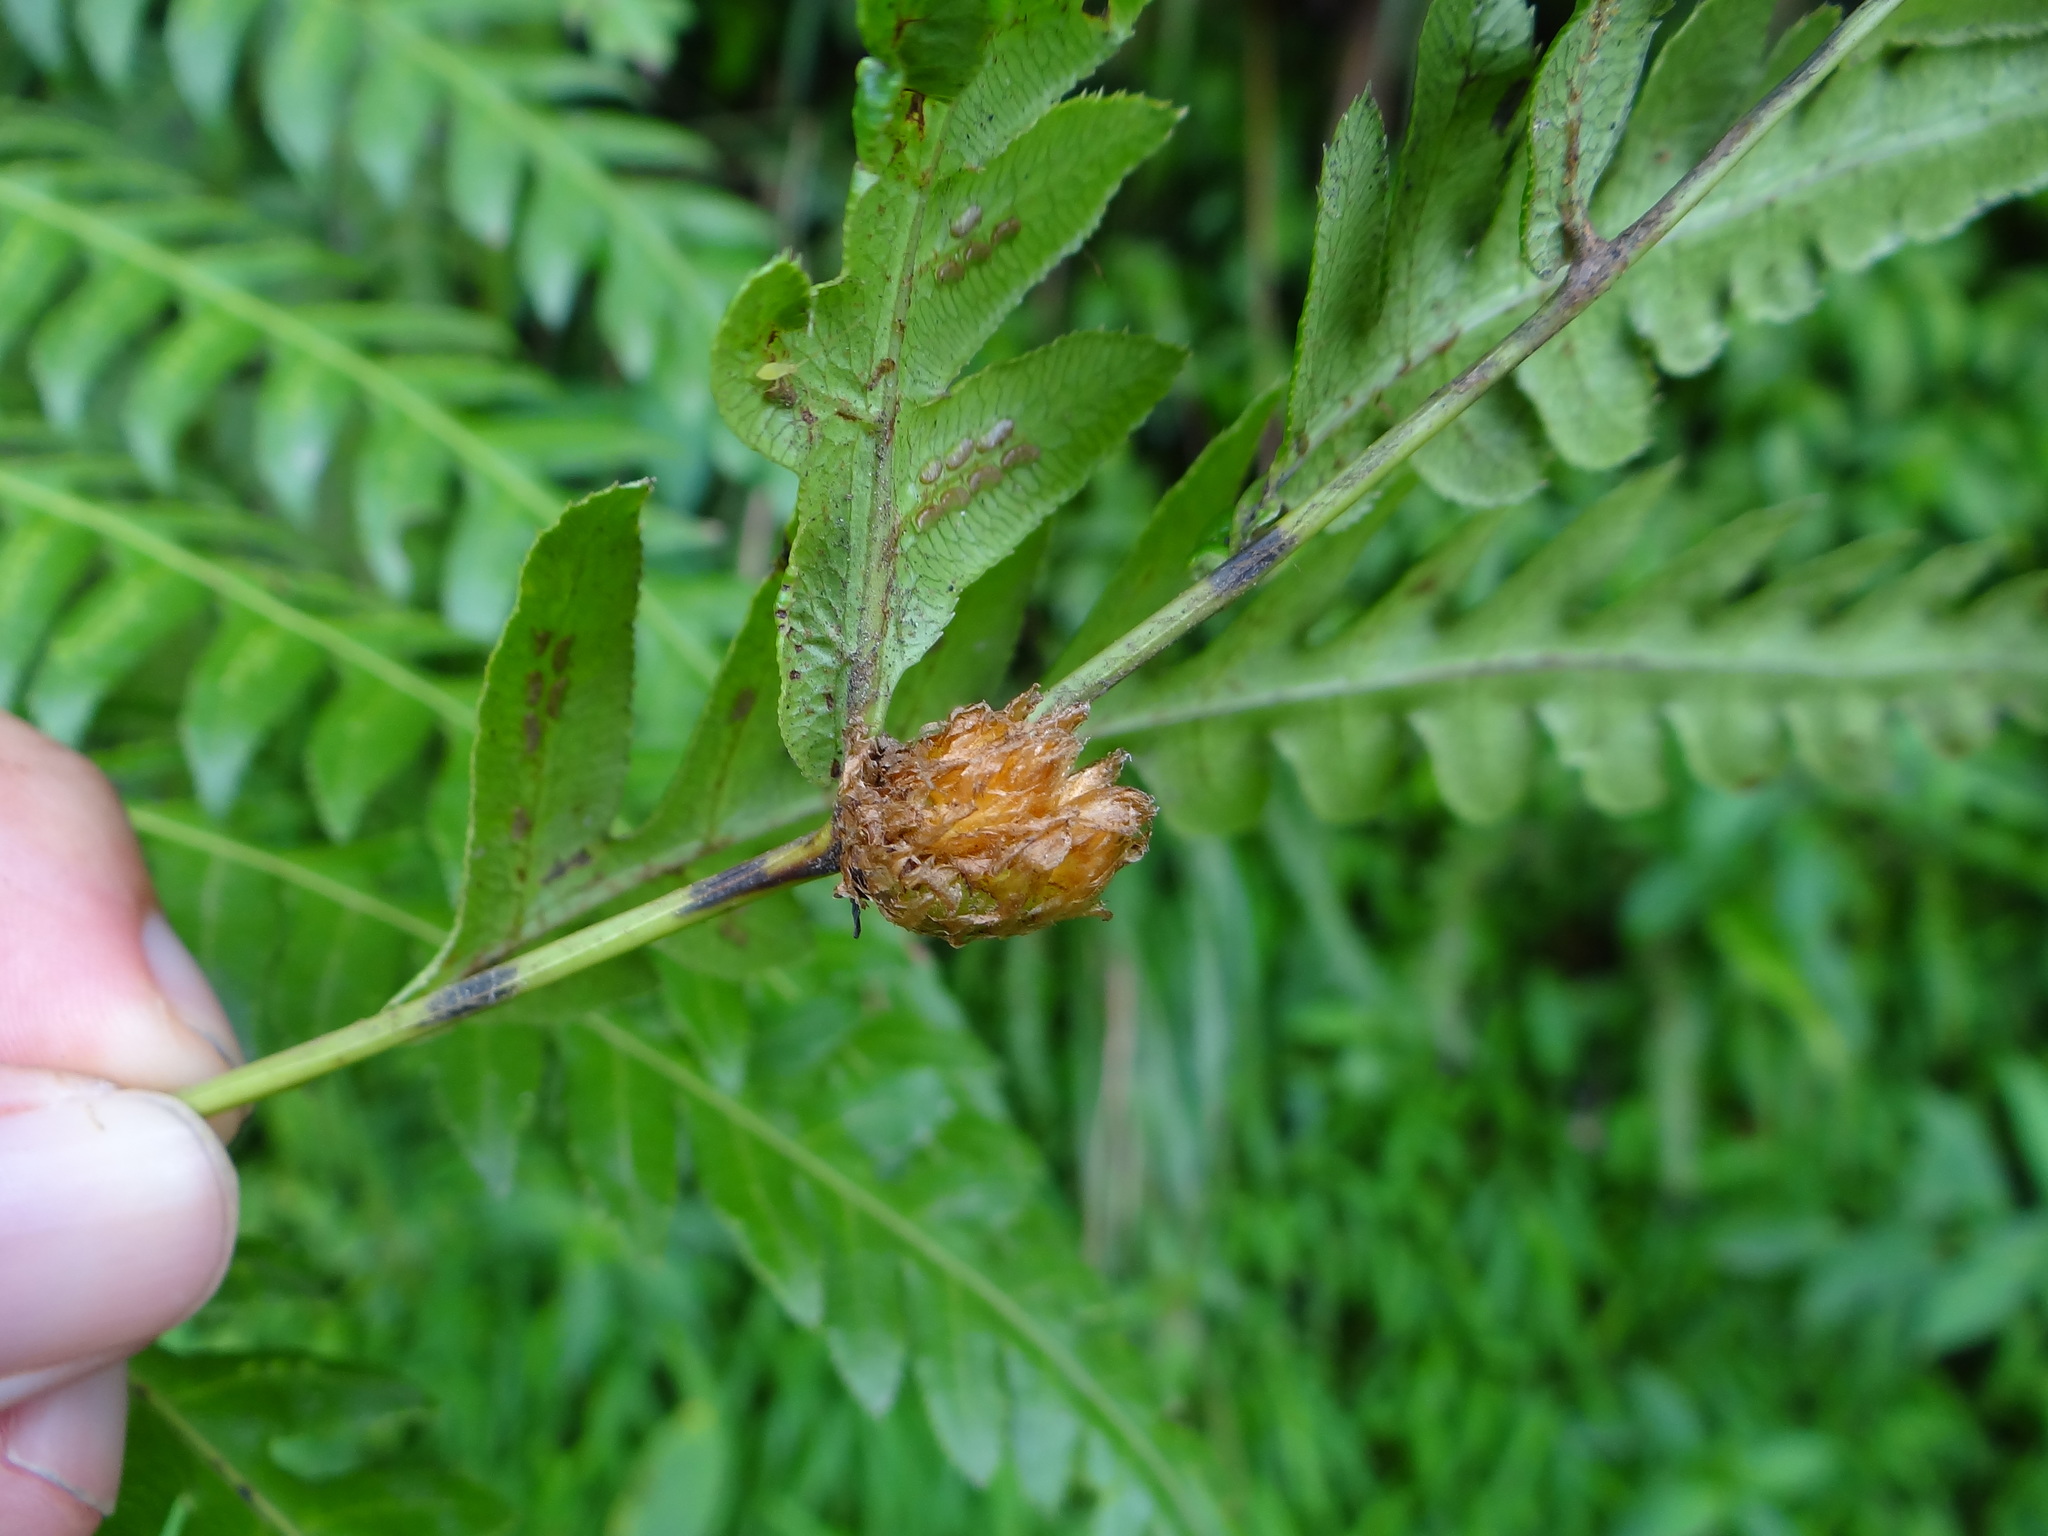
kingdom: Plantae
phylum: Tracheophyta
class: Polypodiopsida
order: Polypodiales
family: Blechnaceae
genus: Woodwardia
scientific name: Woodwardia unigemmata
